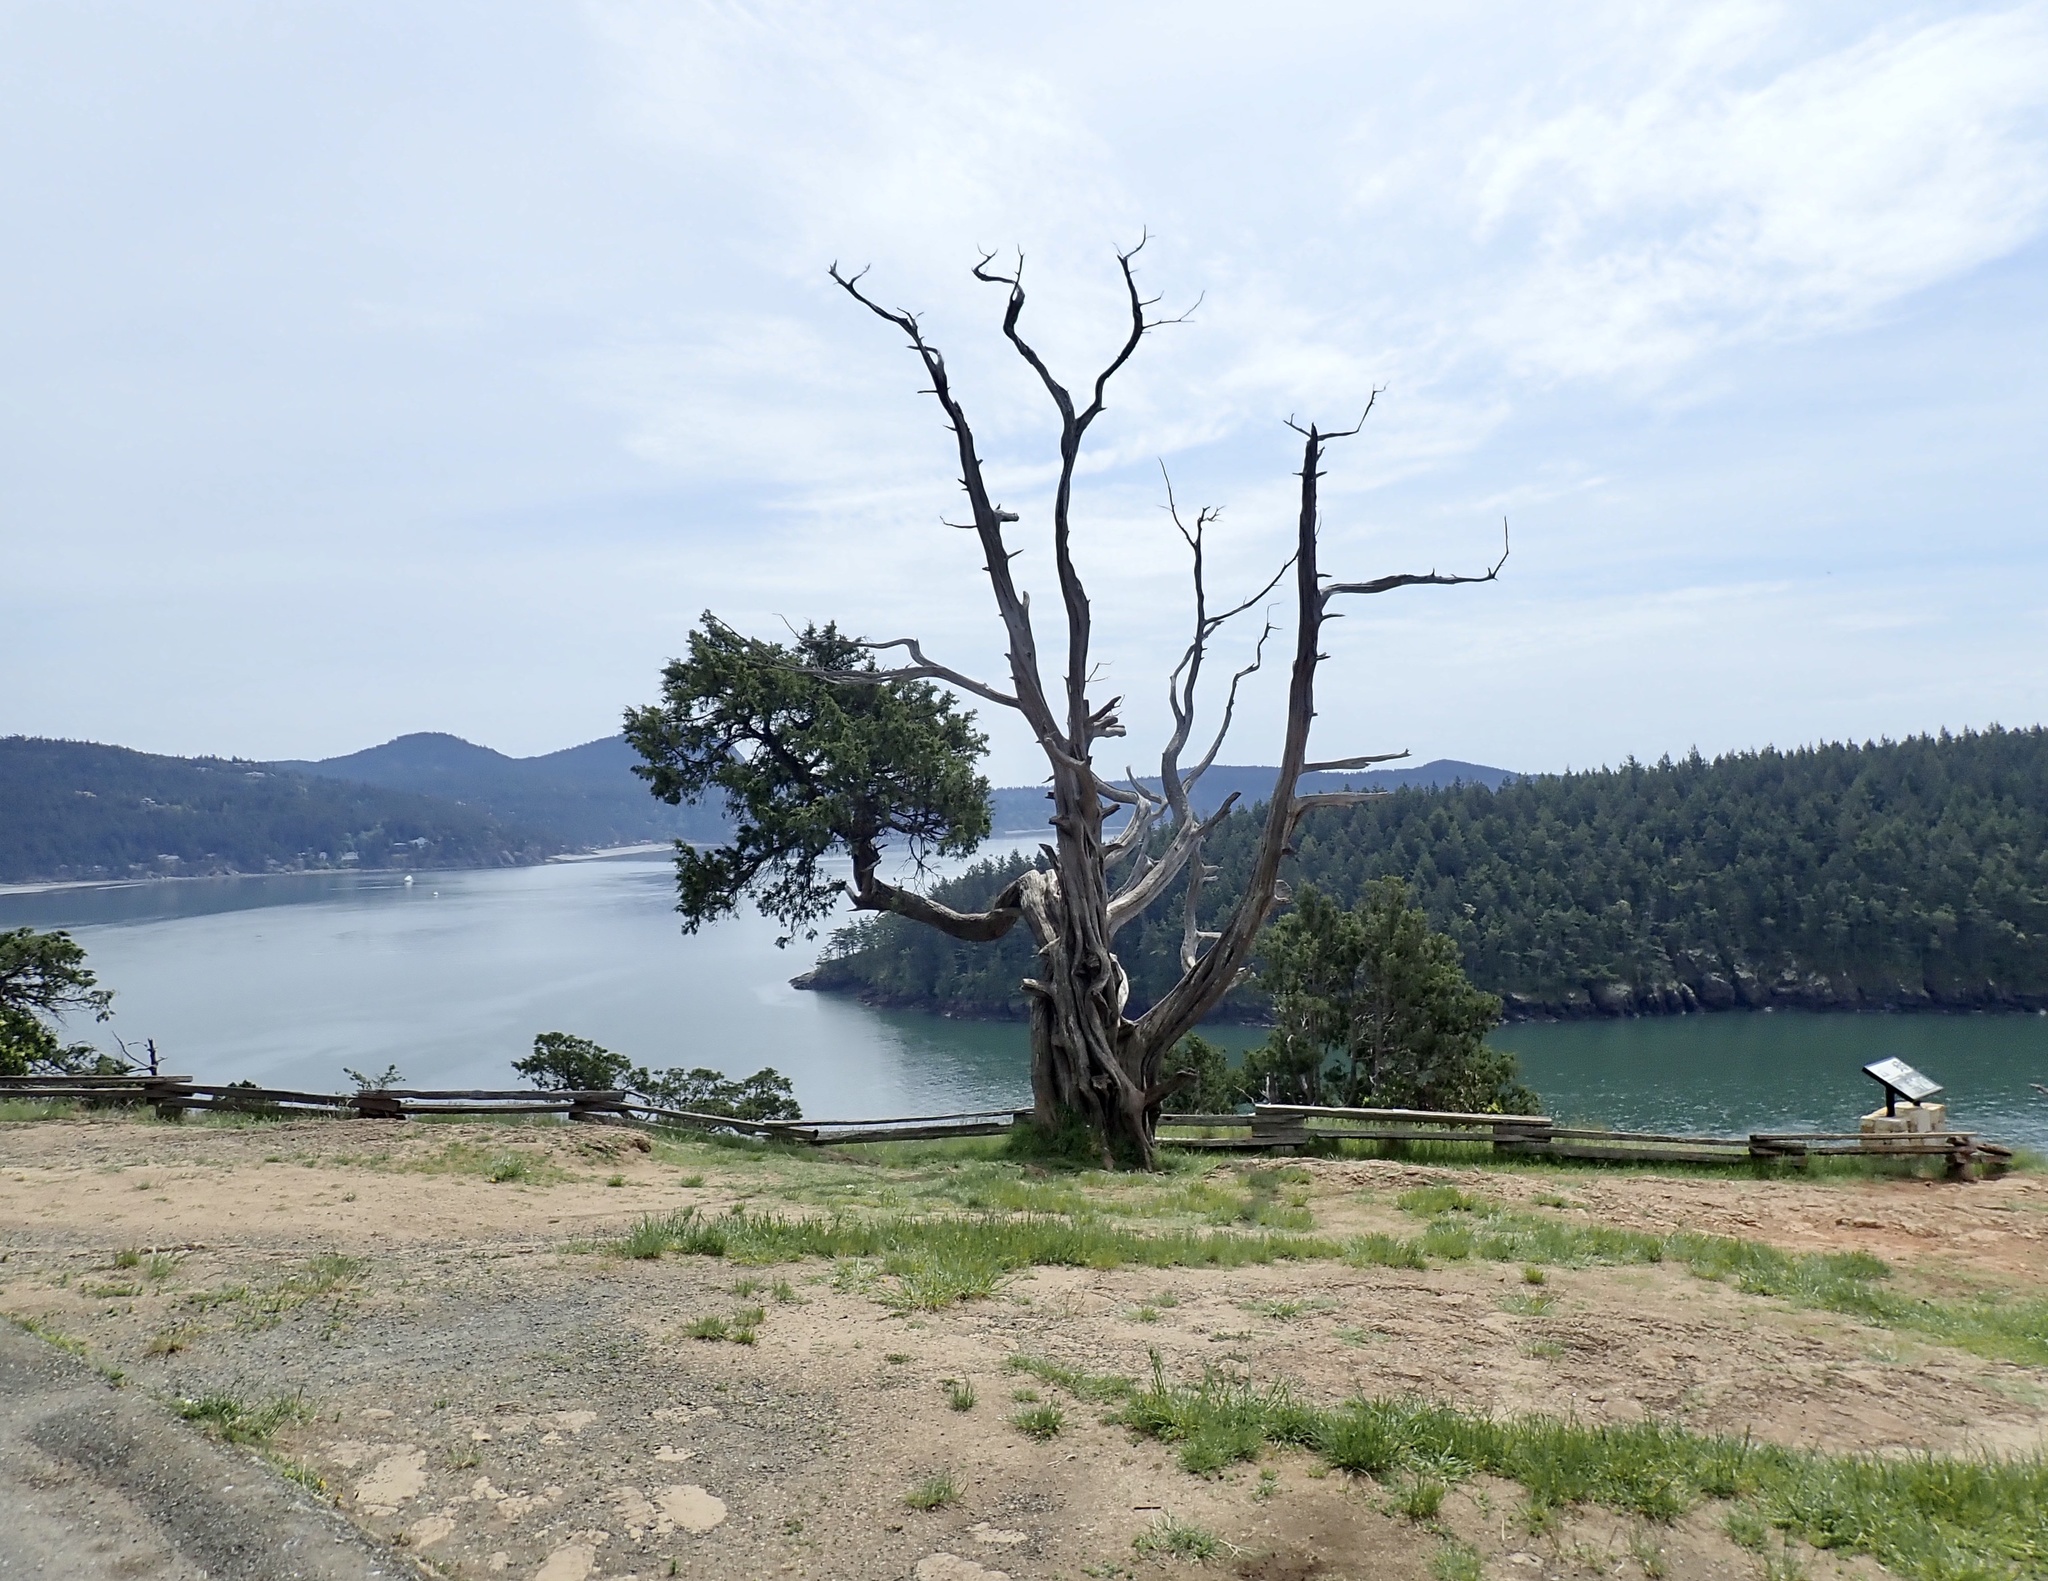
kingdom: Plantae
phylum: Tracheophyta
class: Pinopsida
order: Pinales
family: Cupressaceae
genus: Juniperus
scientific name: Juniperus scopulorum
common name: Rocky mountain juniper
